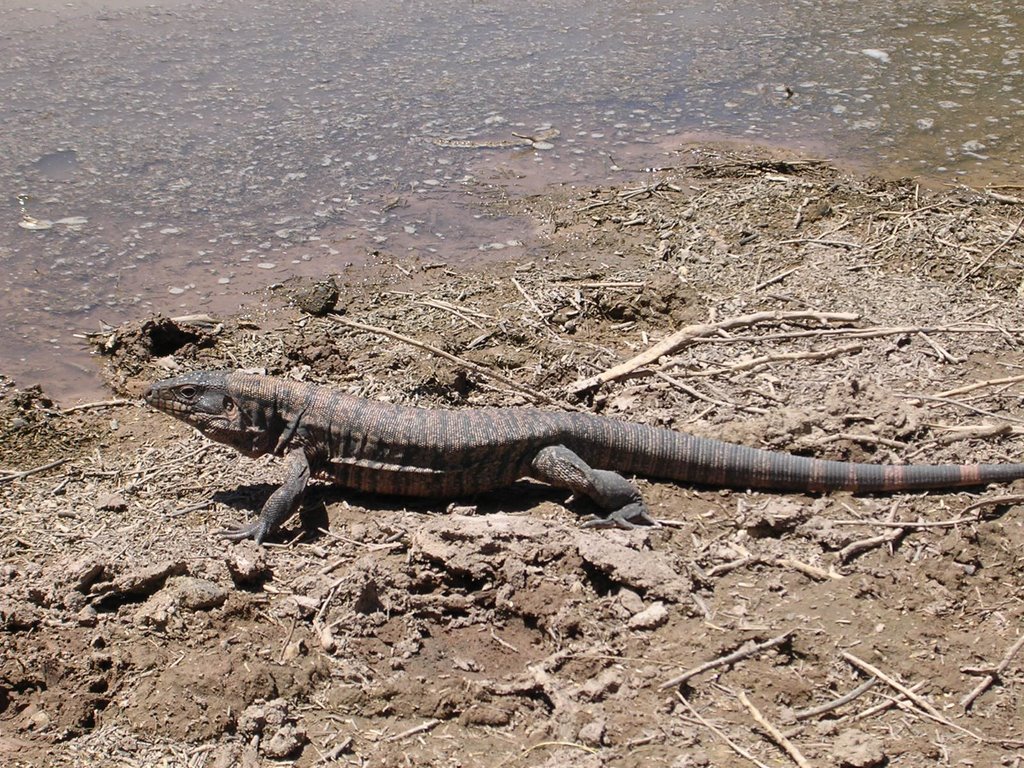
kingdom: Animalia
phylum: Chordata
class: Squamata
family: Teiidae
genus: Salvator
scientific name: Salvator rufescens
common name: Red tegu
